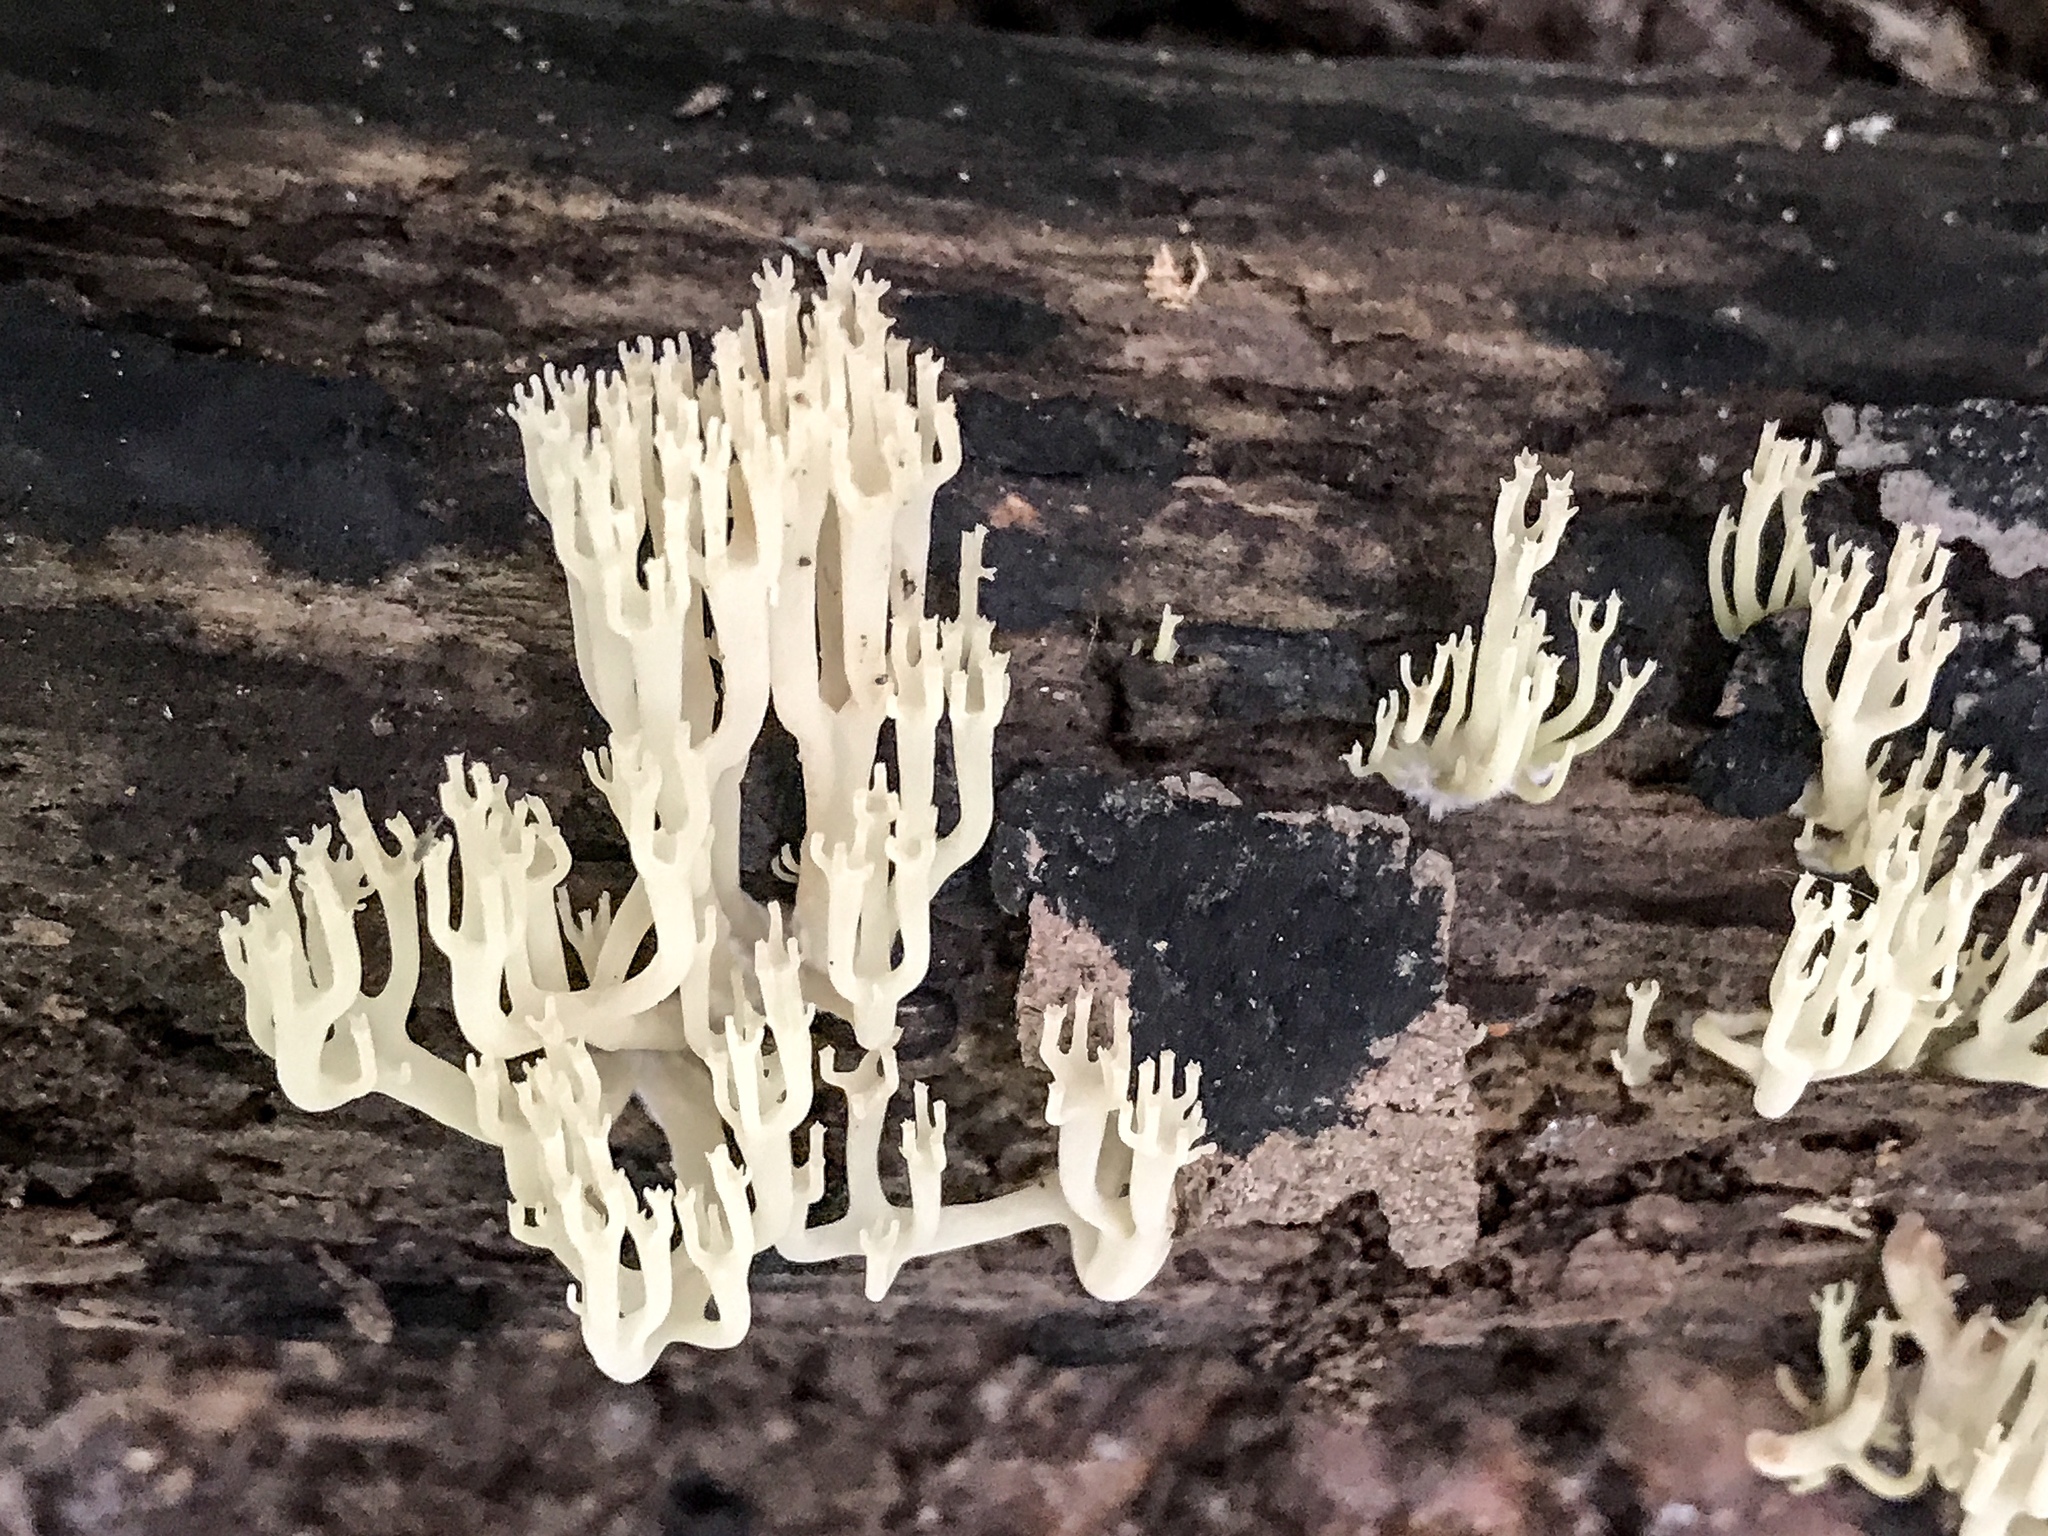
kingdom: Fungi
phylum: Basidiomycota
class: Agaricomycetes
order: Russulales
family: Auriscalpiaceae
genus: Artomyces
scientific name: Artomyces pyxidatus
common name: Crown-tipped coral fungus
